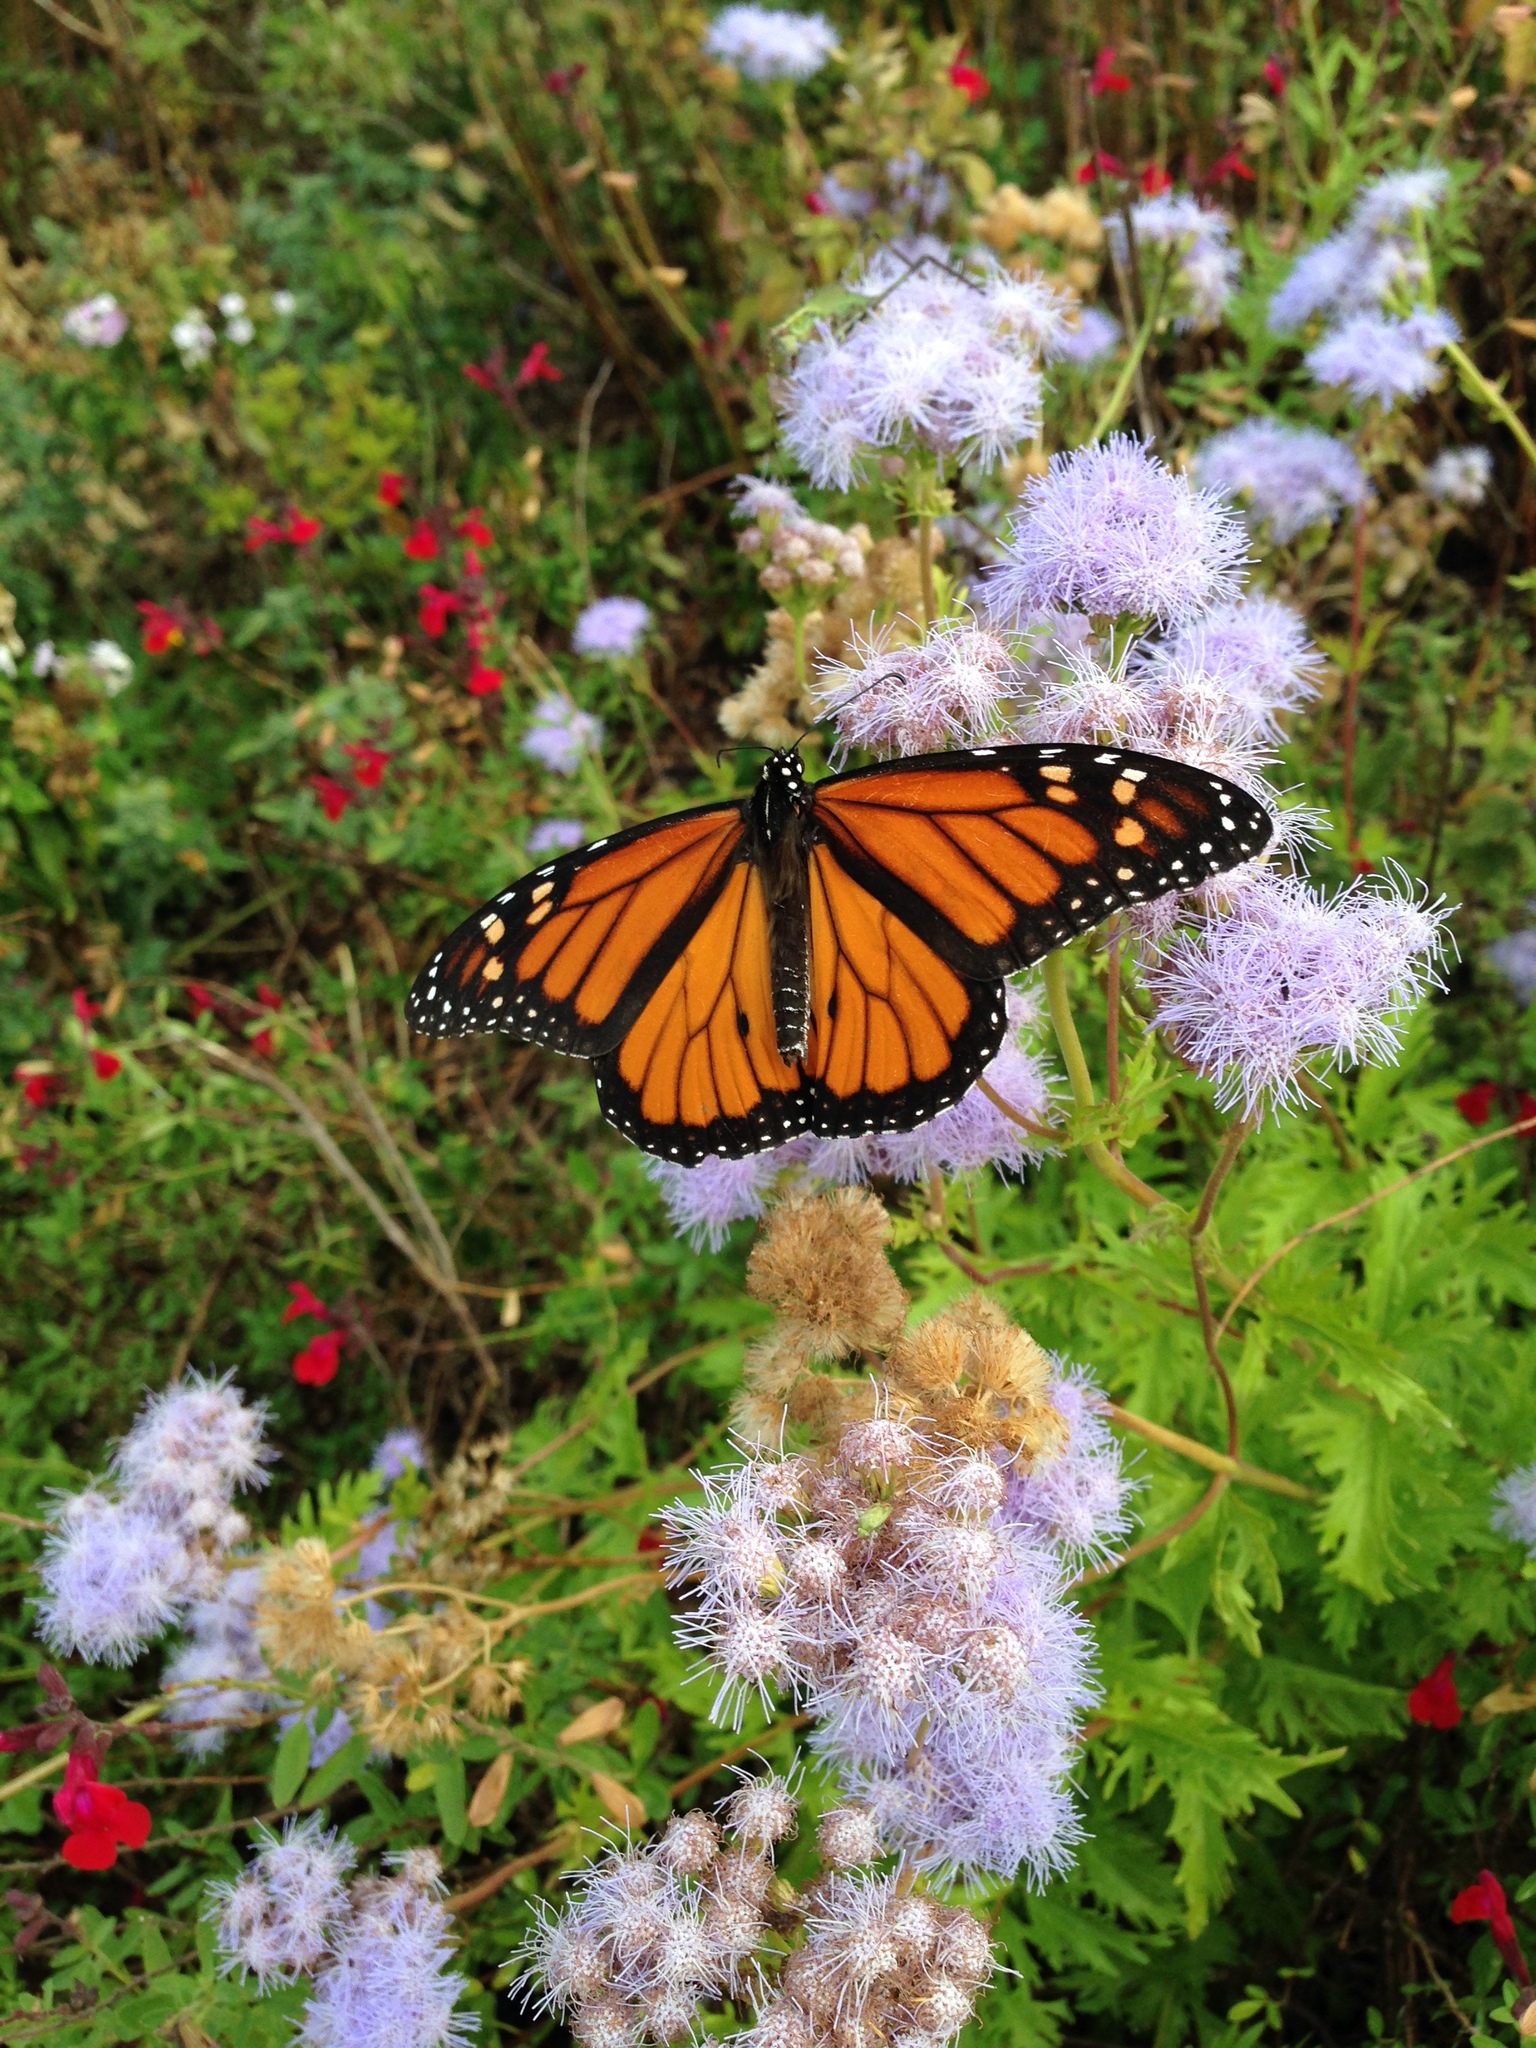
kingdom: Animalia
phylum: Arthropoda
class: Insecta
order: Lepidoptera
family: Nymphalidae
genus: Danaus
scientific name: Danaus plexippus
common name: Monarch
